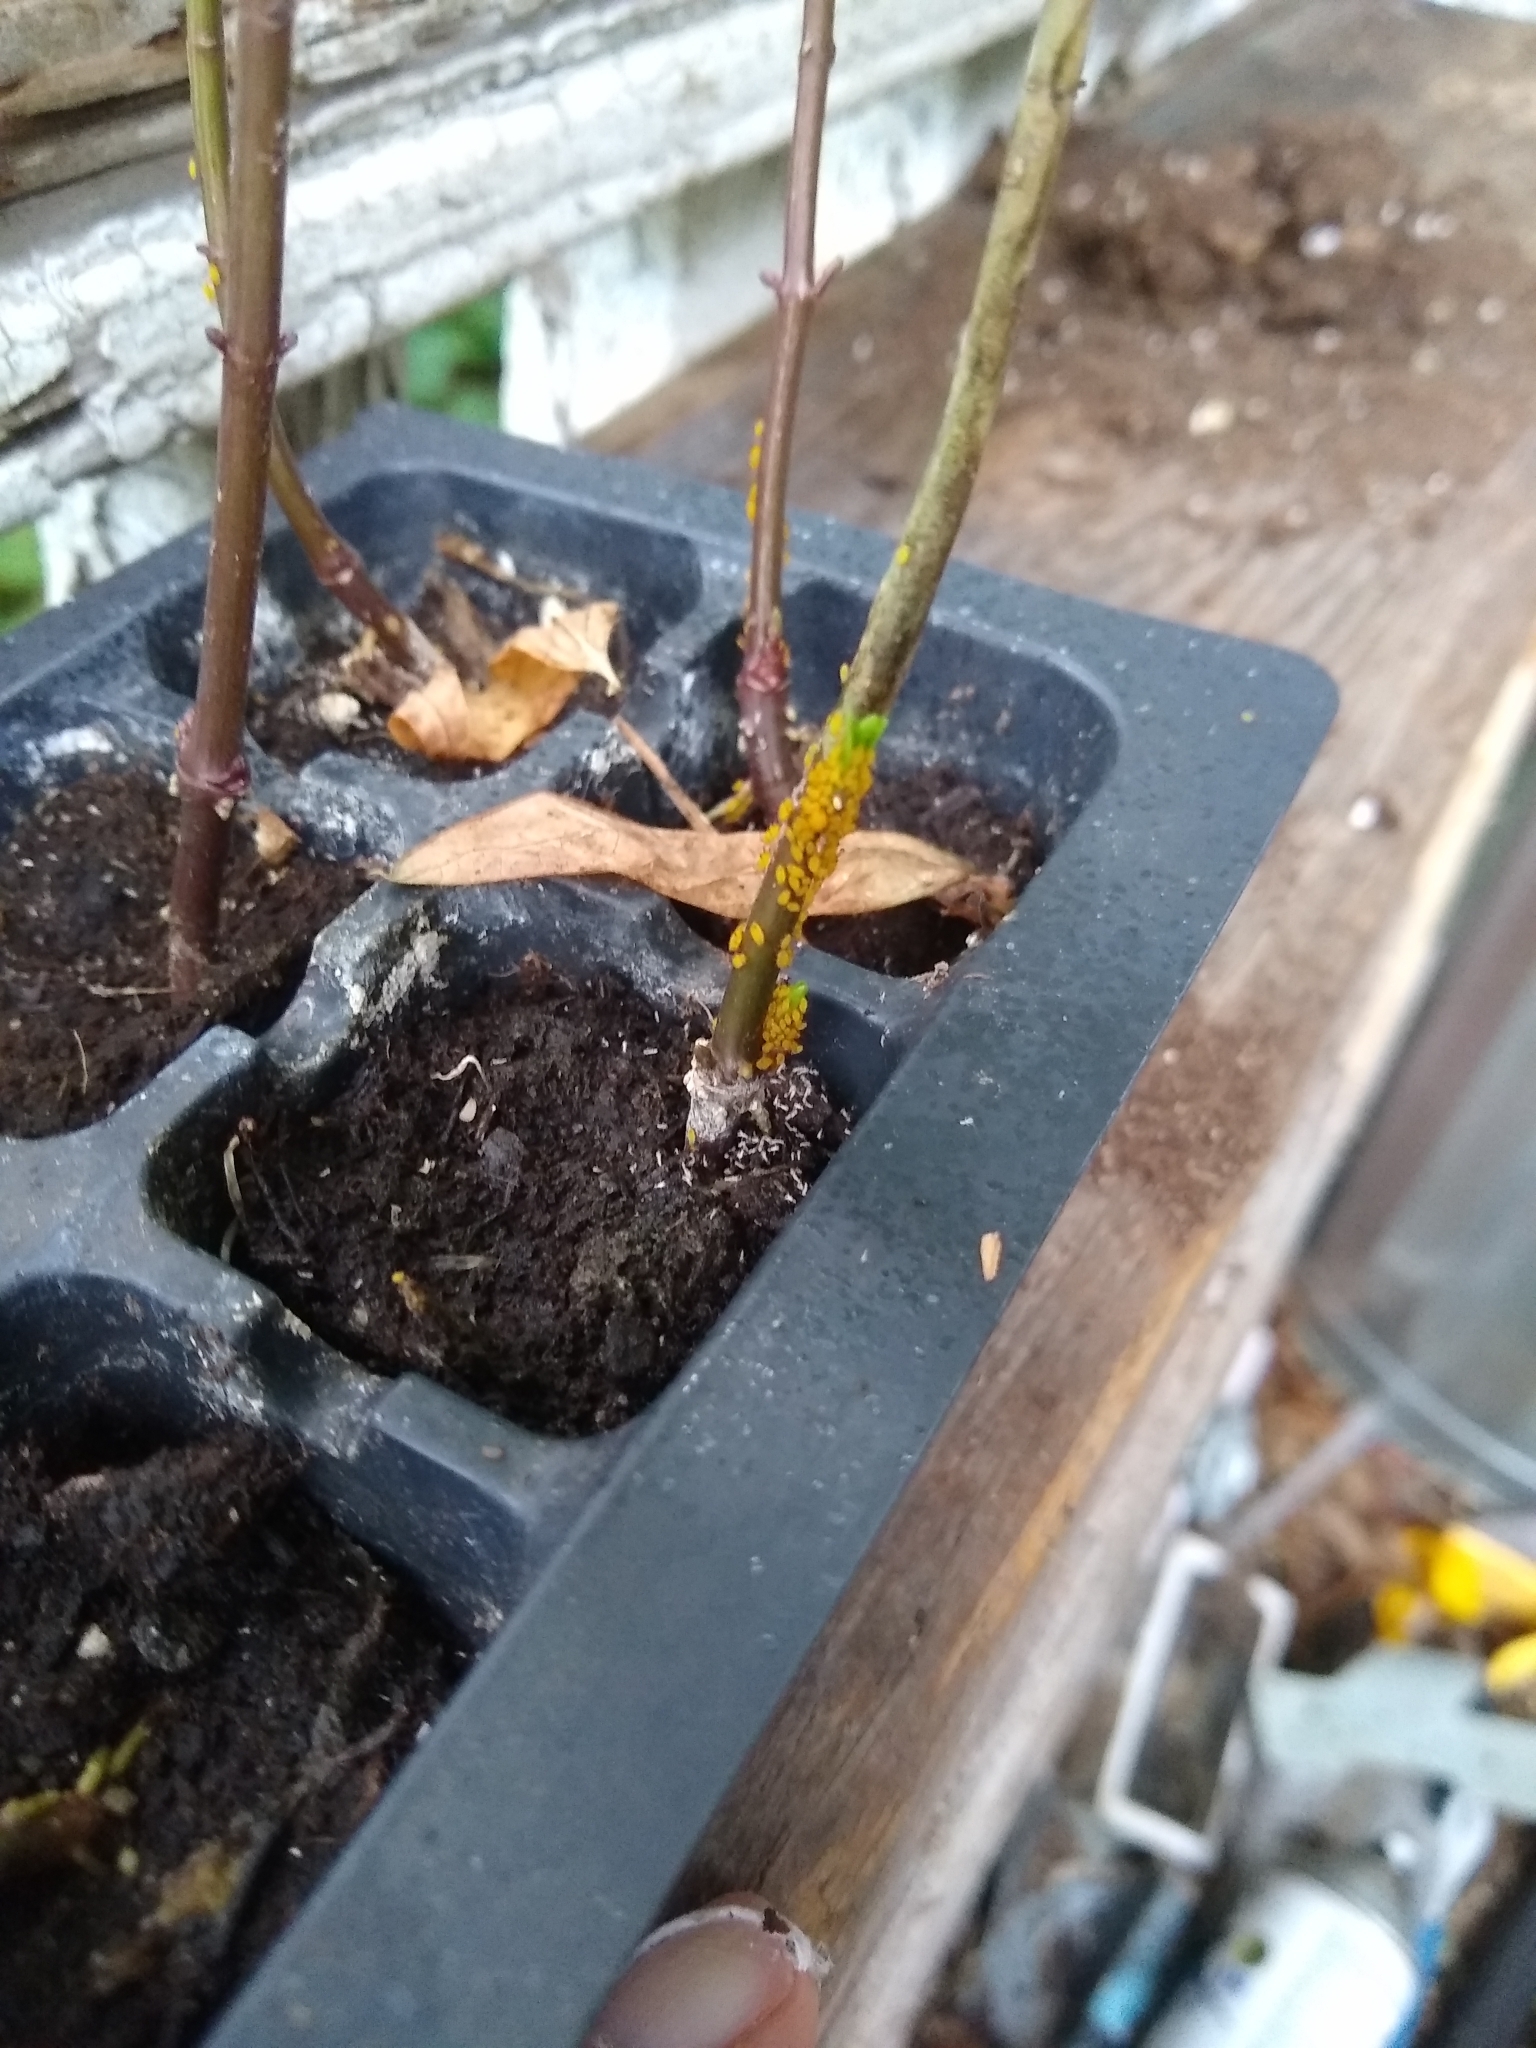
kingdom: Animalia
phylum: Arthropoda
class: Insecta
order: Hemiptera
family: Aphididae
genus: Aphis
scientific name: Aphis nerii
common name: Oleander aphid
